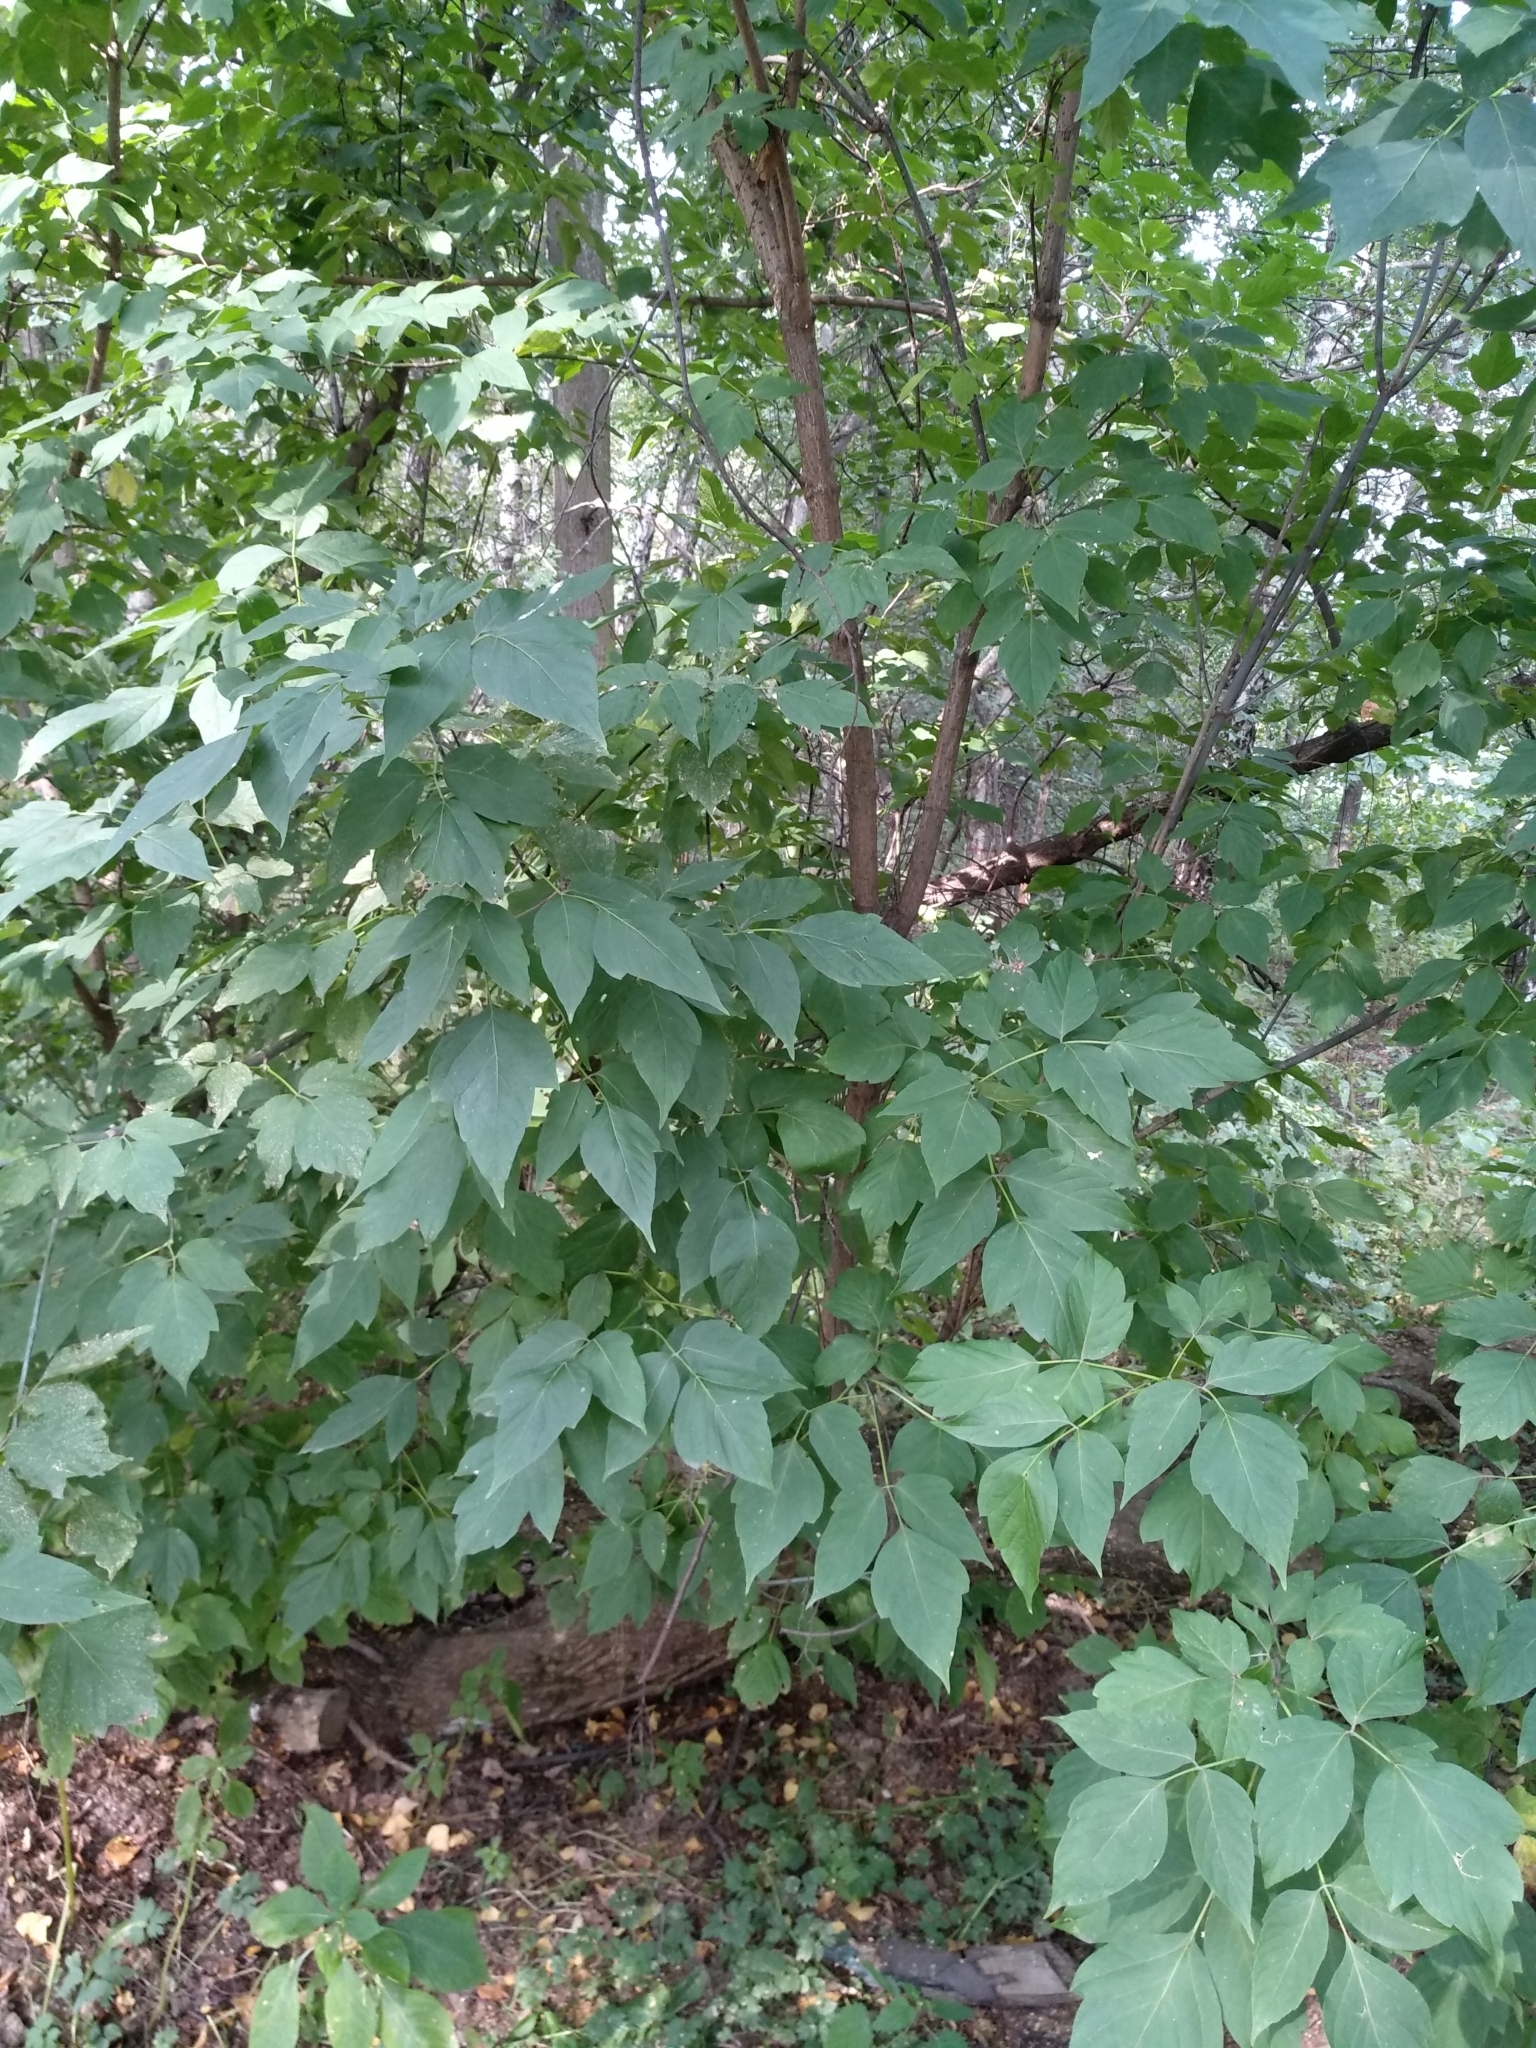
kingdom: Plantae
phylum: Tracheophyta
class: Magnoliopsida
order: Sapindales
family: Sapindaceae
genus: Acer
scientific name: Acer negundo
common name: Ashleaf maple
